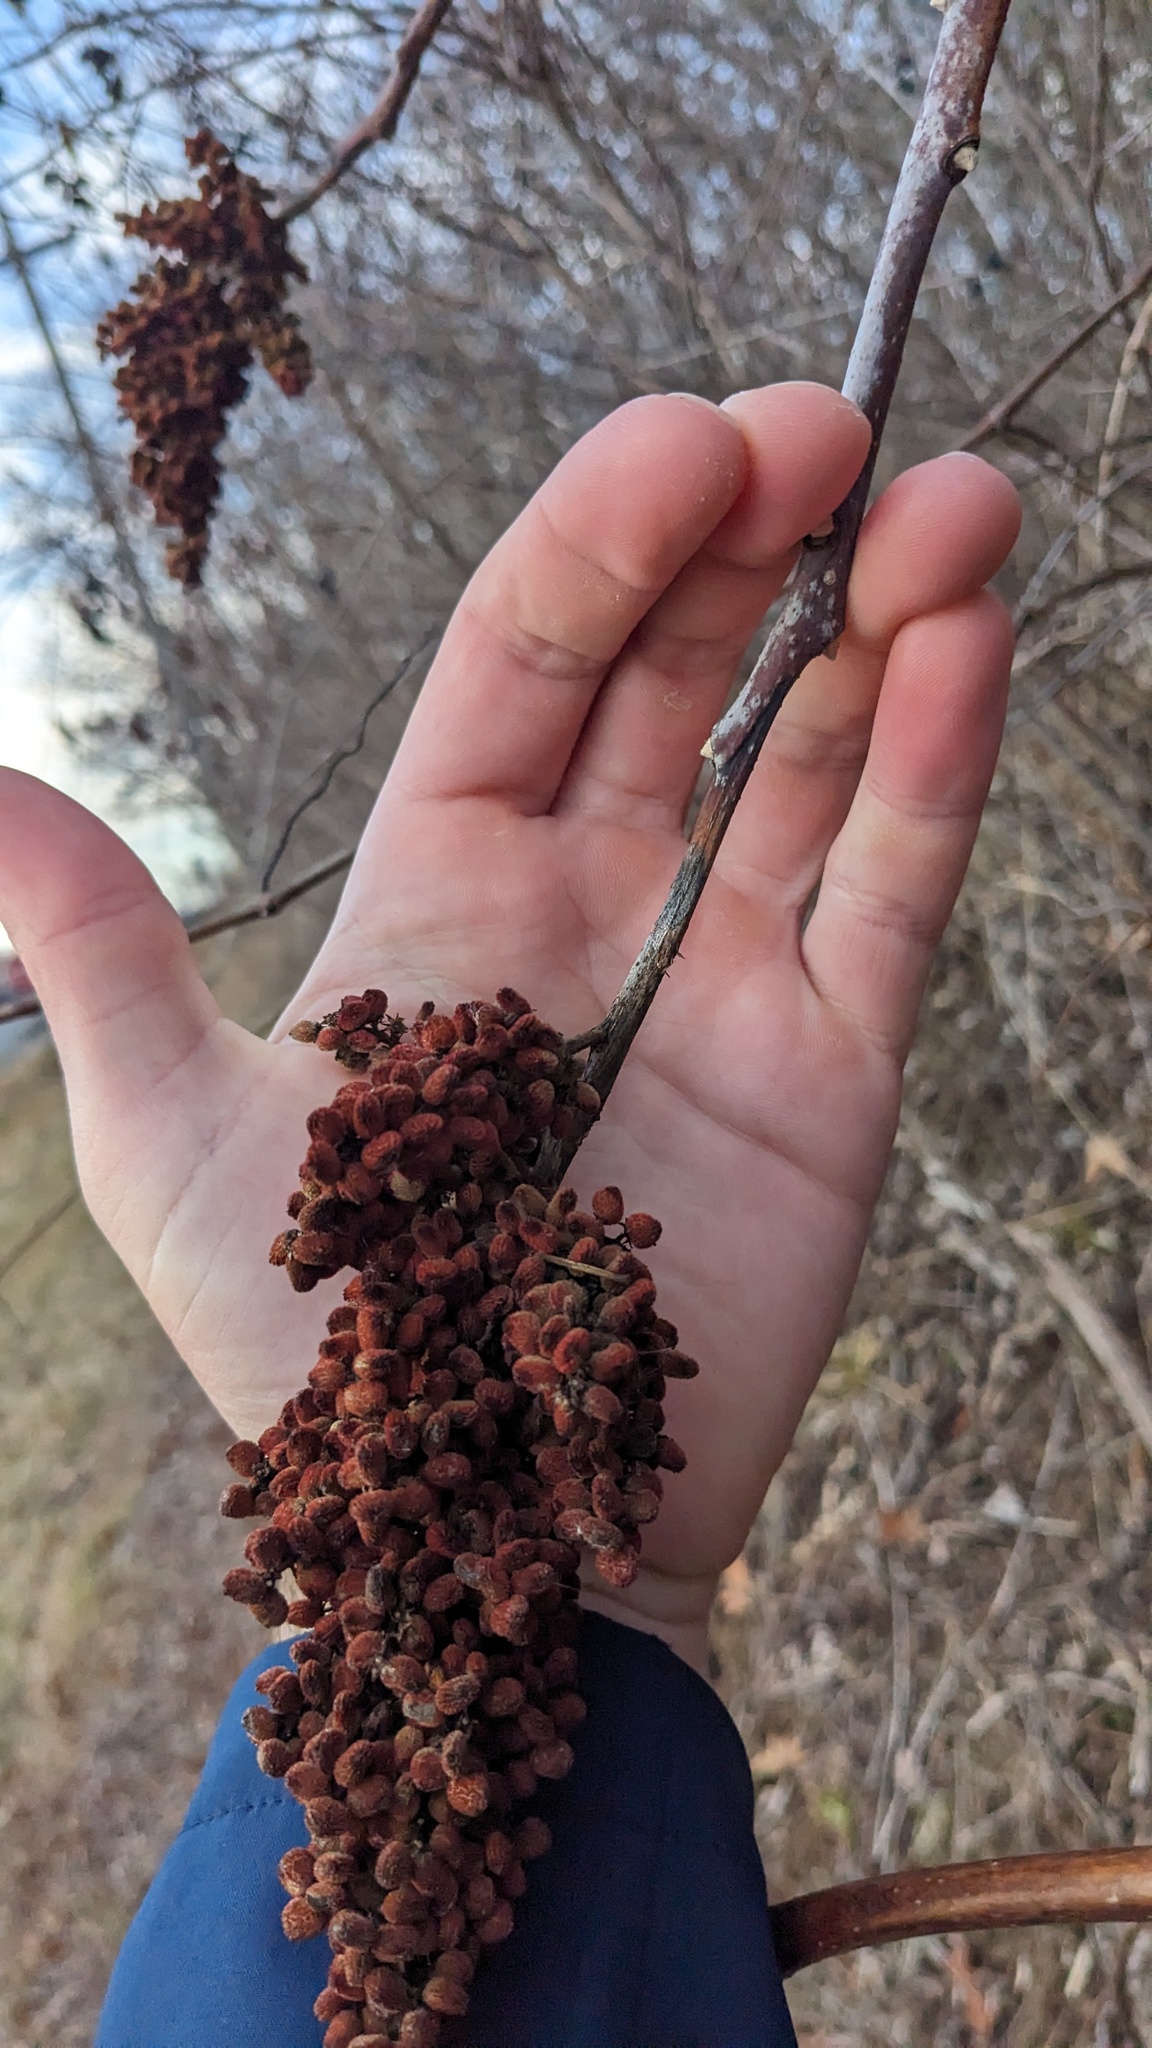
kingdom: Plantae
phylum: Tracheophyta
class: Magnoliopsida
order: Sapindales
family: Anacardiaceae
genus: Rhus
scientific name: Rhus glabra
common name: Scarlet sumac
